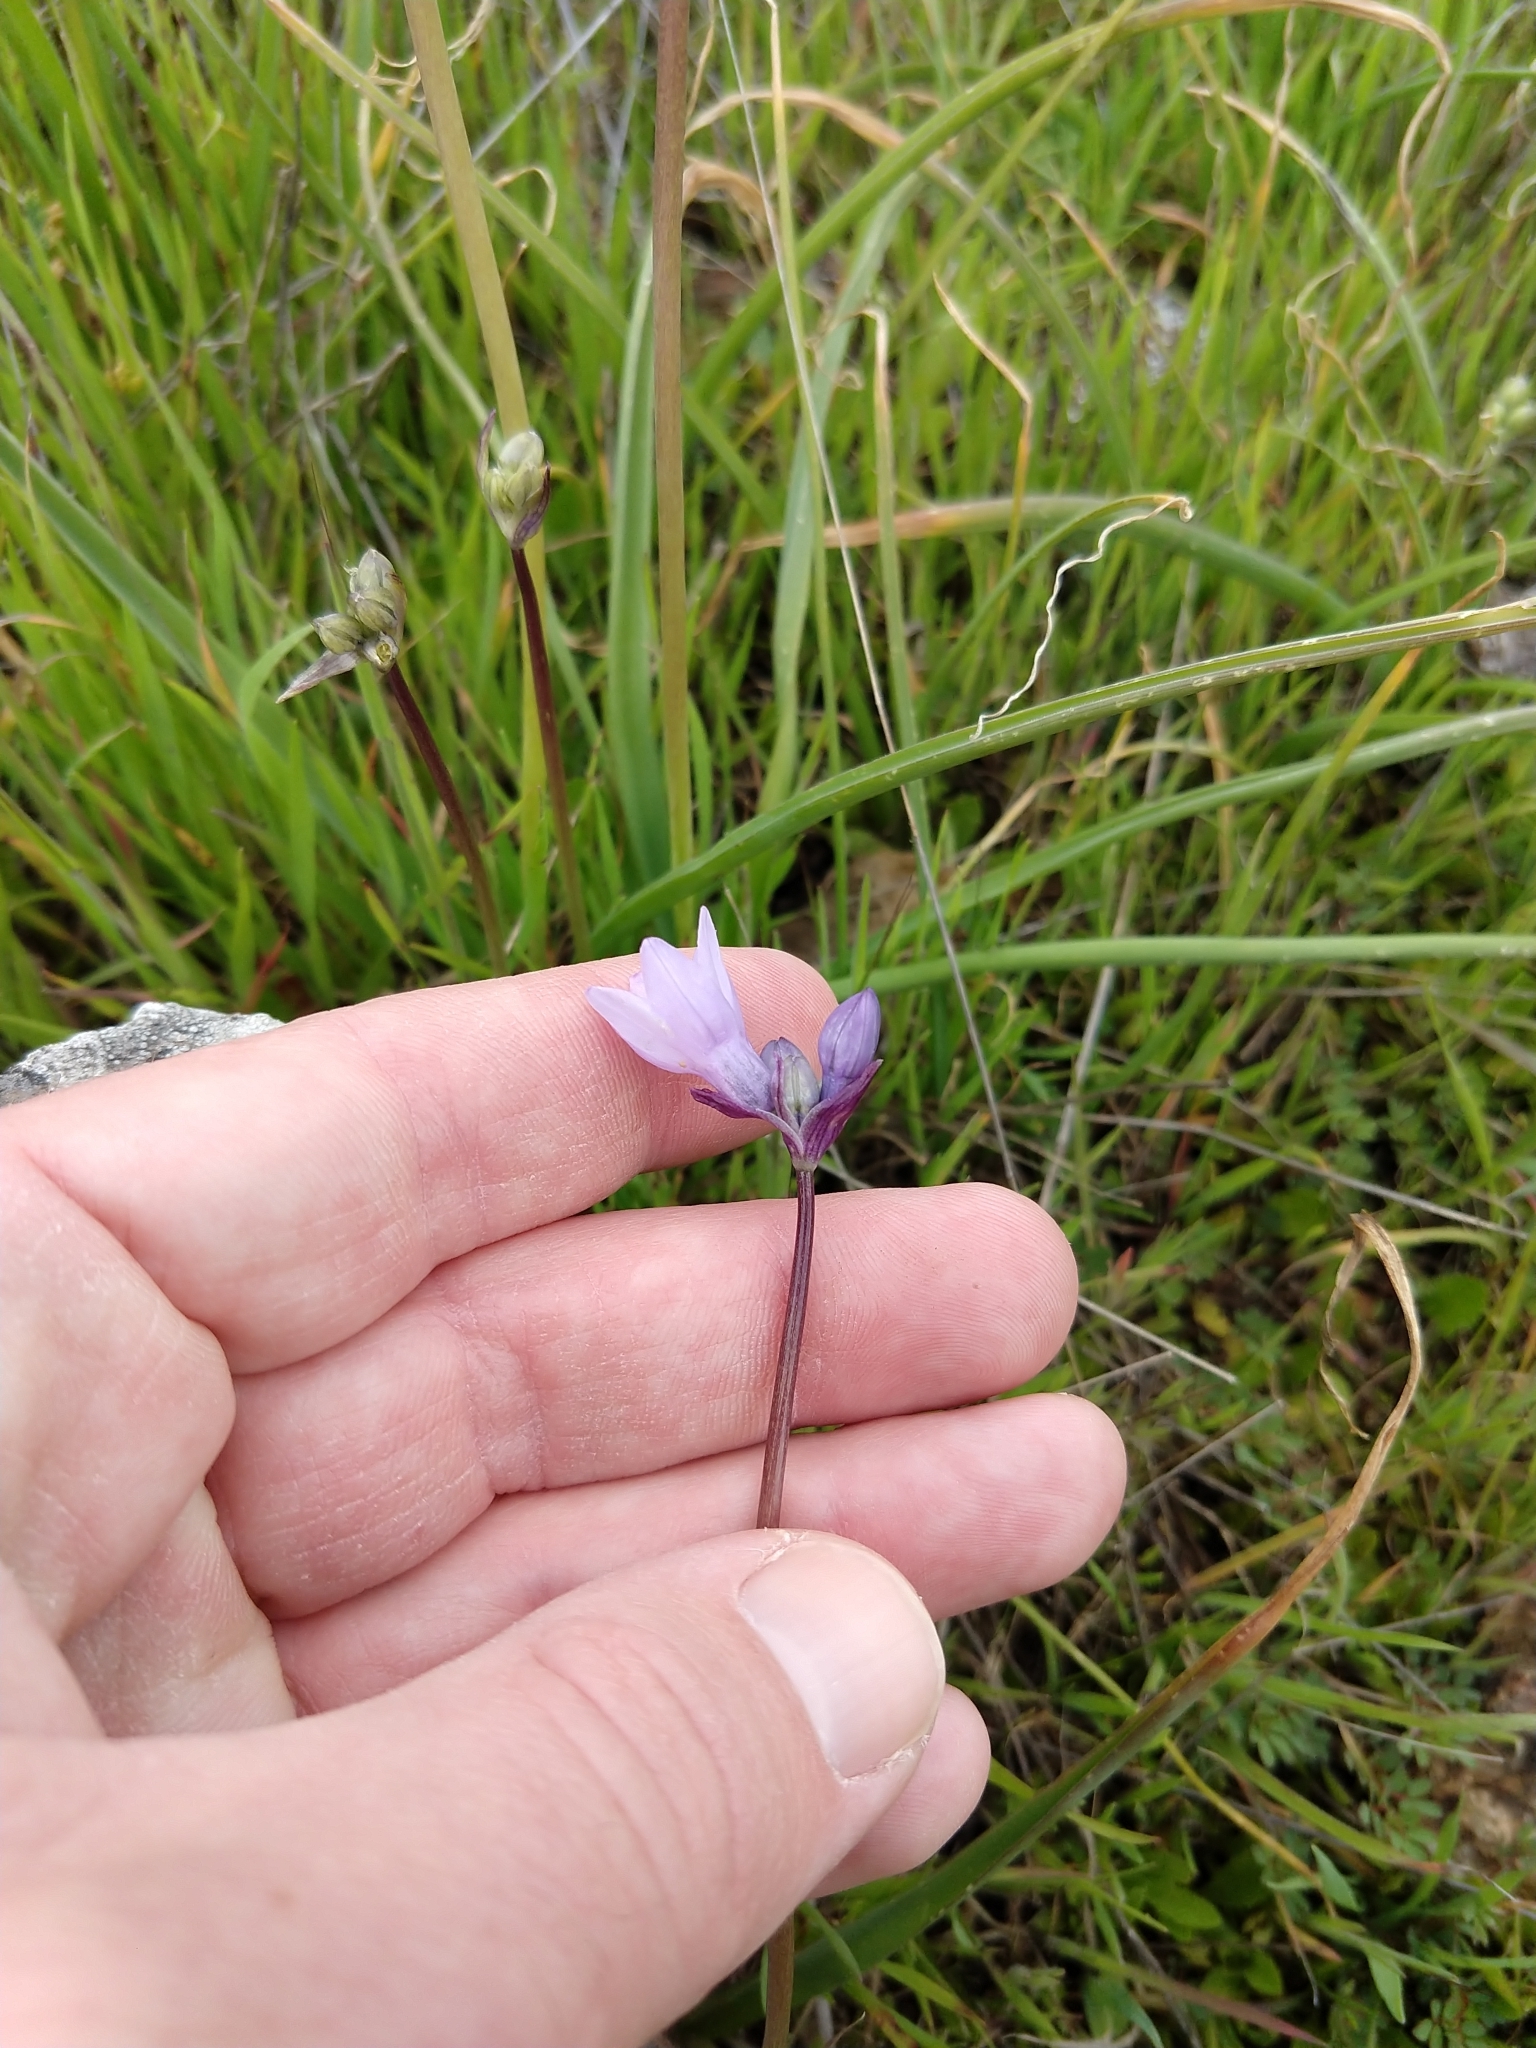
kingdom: Plantae
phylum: Tracheophyta
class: Liliopsida
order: Asparagales
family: Asparagaceae
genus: Dipterostemon
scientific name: Dipterostemon capitatus
